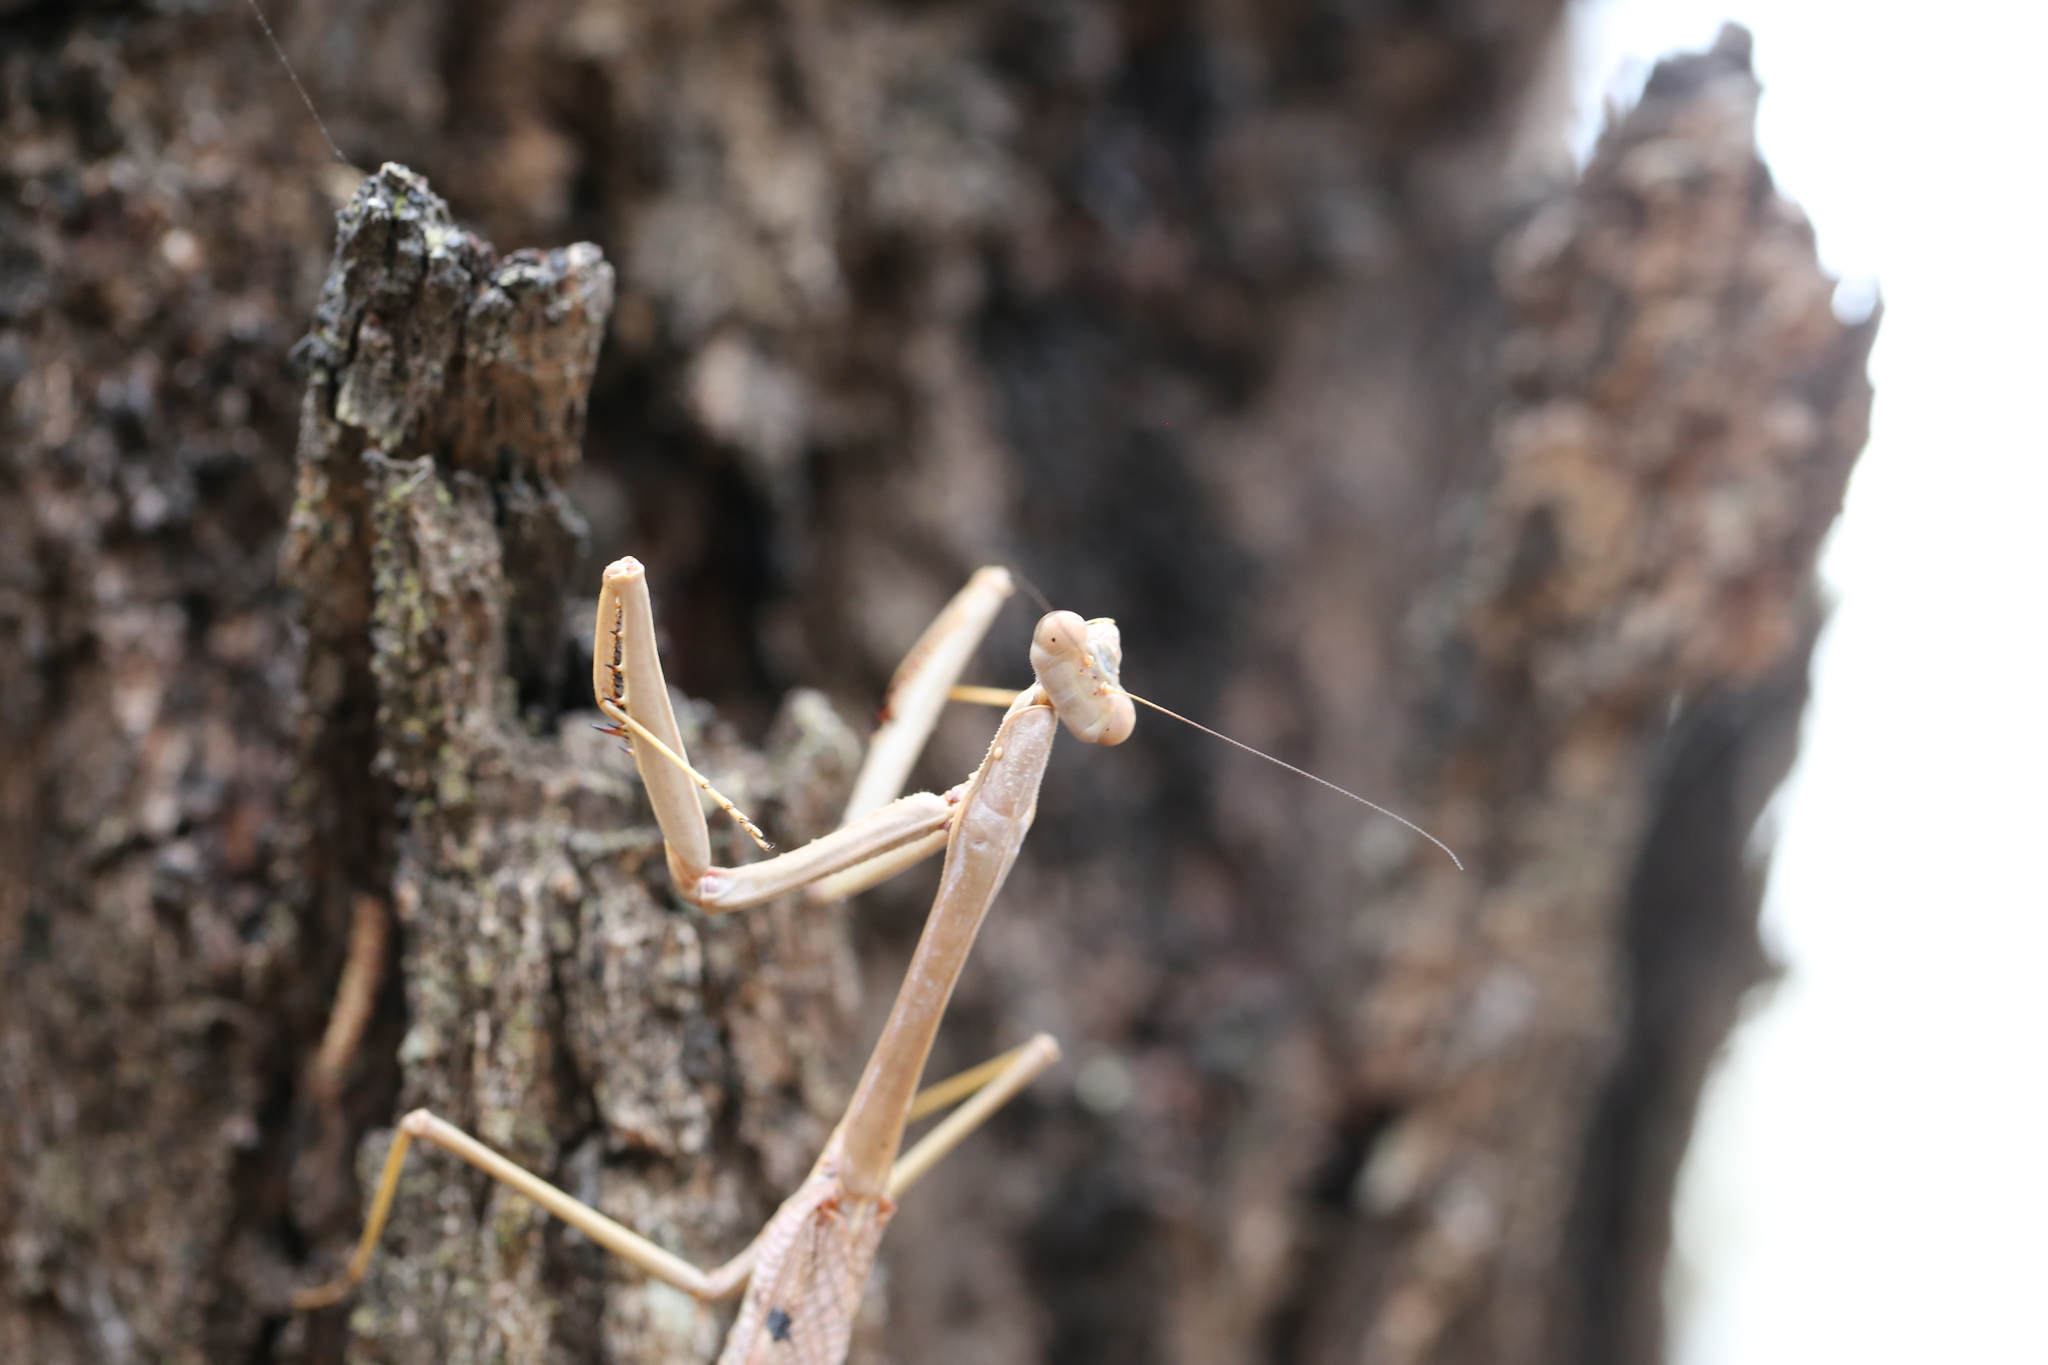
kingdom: Animalia
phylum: Arthropoda
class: Insecta
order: Mantodea
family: Mantidae
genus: Archimantis
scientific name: Archimantis latistyla
